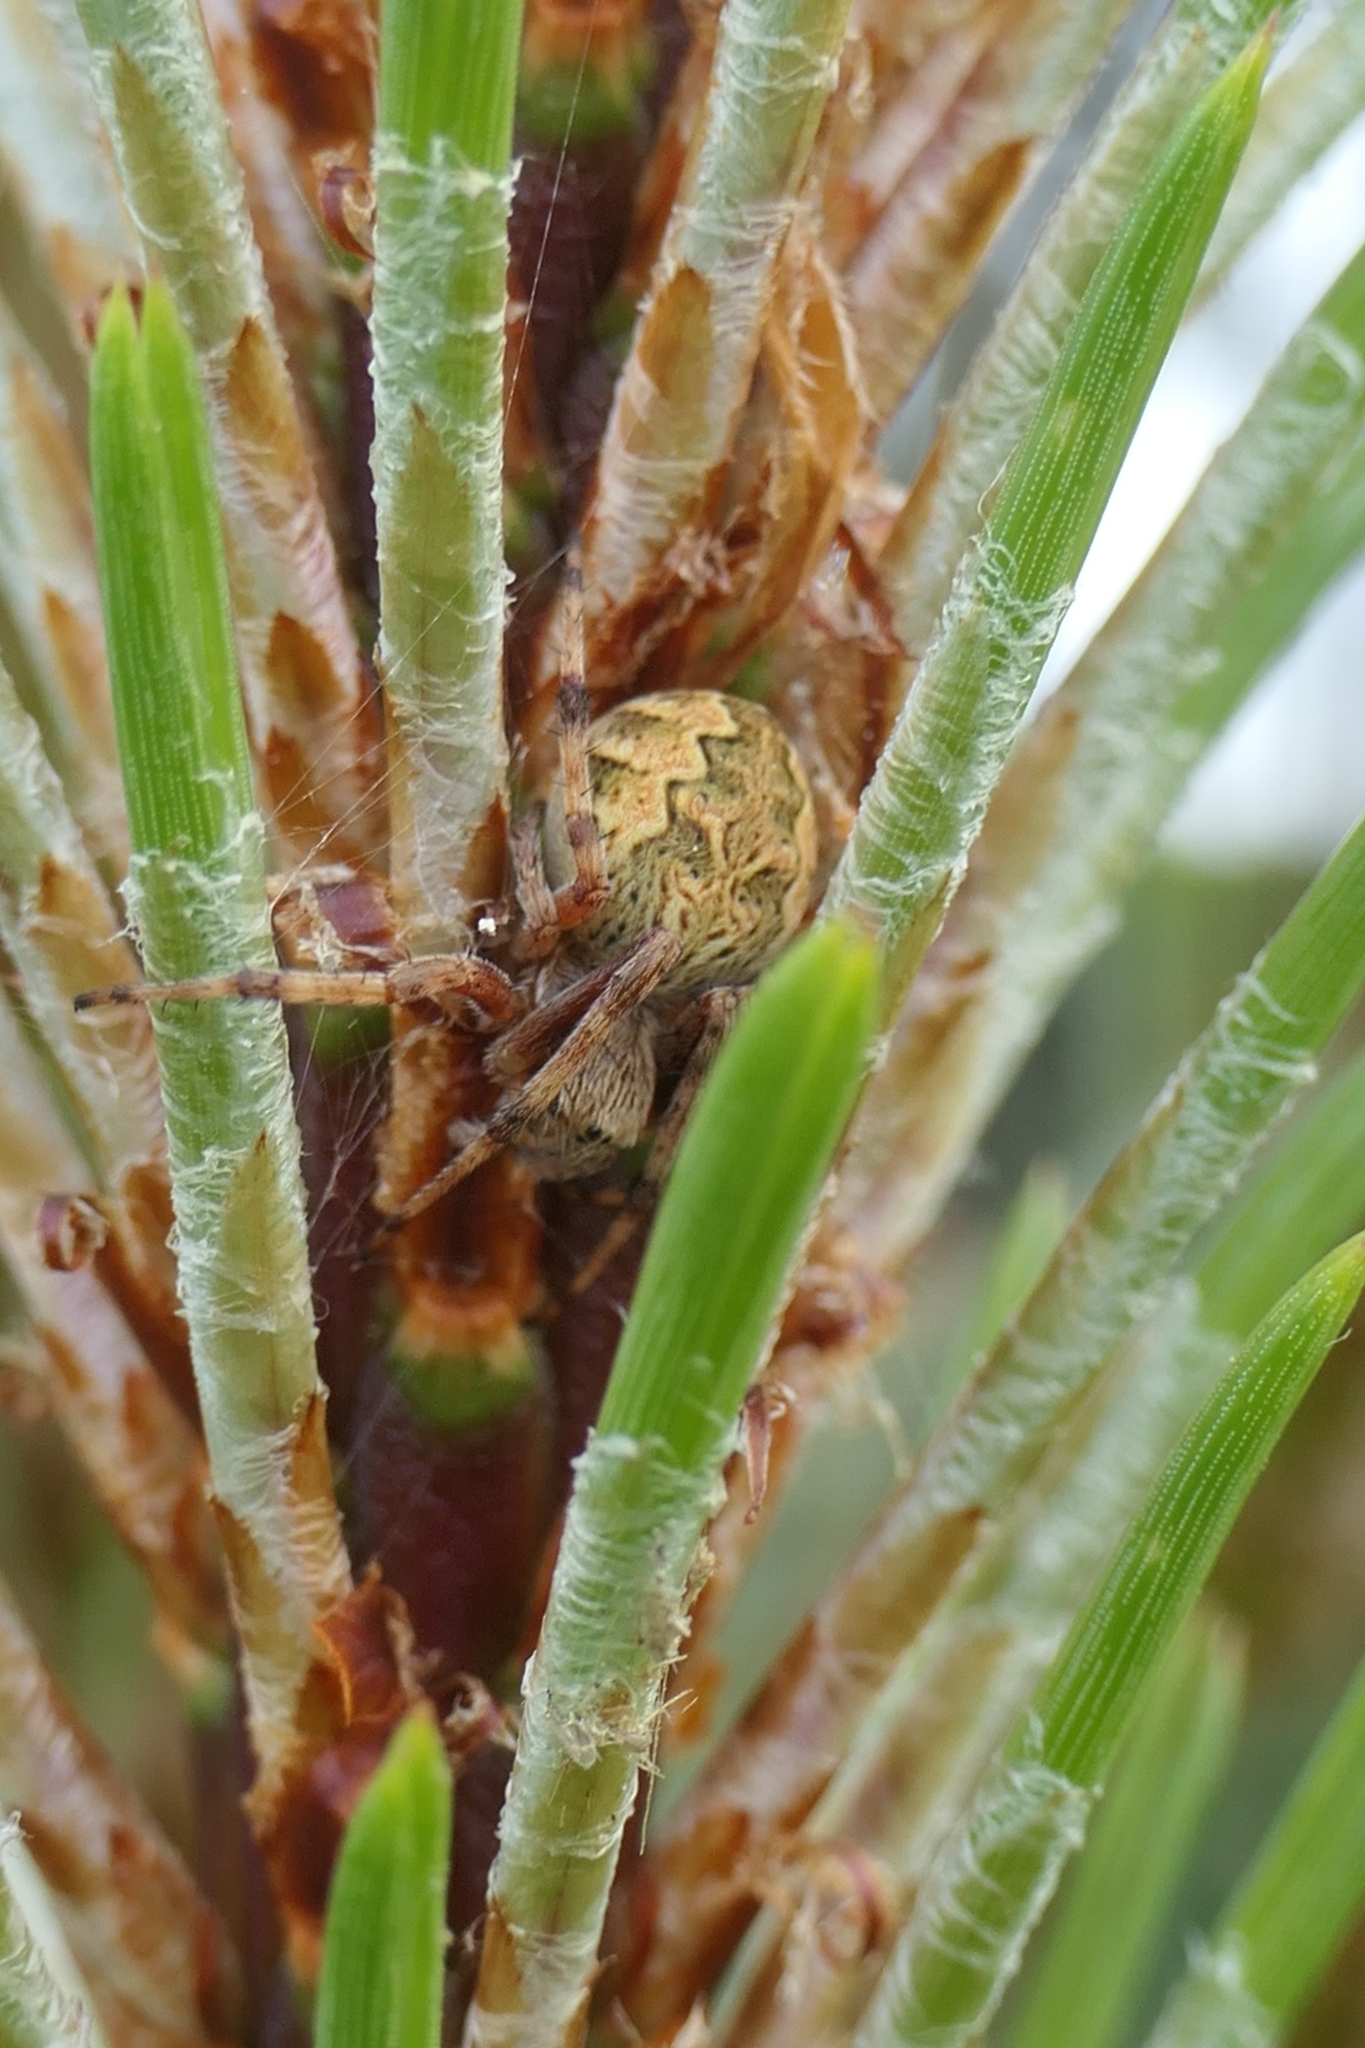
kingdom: Animalia
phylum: Arthropoda
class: Arachnida
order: Araneae
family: Araneidae
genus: Salsa
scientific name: Salsa fuliginata
